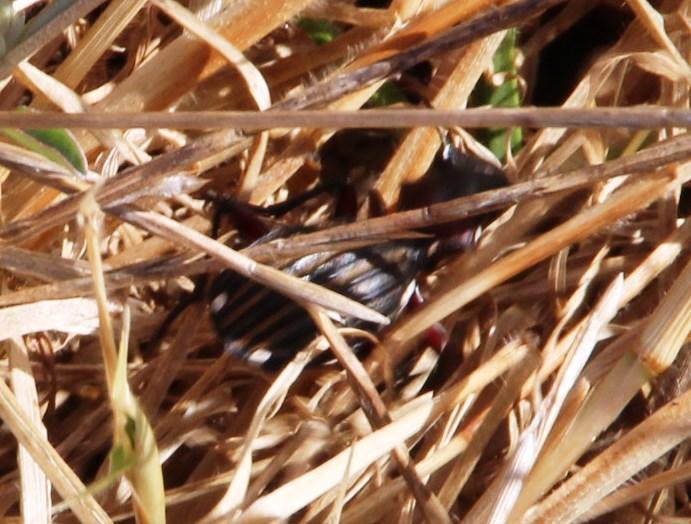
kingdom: Animalia
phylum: Arthropoda
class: Insecta
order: Coleoptera
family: Carabidae
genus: Anthia
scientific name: Anthia decemguttata
